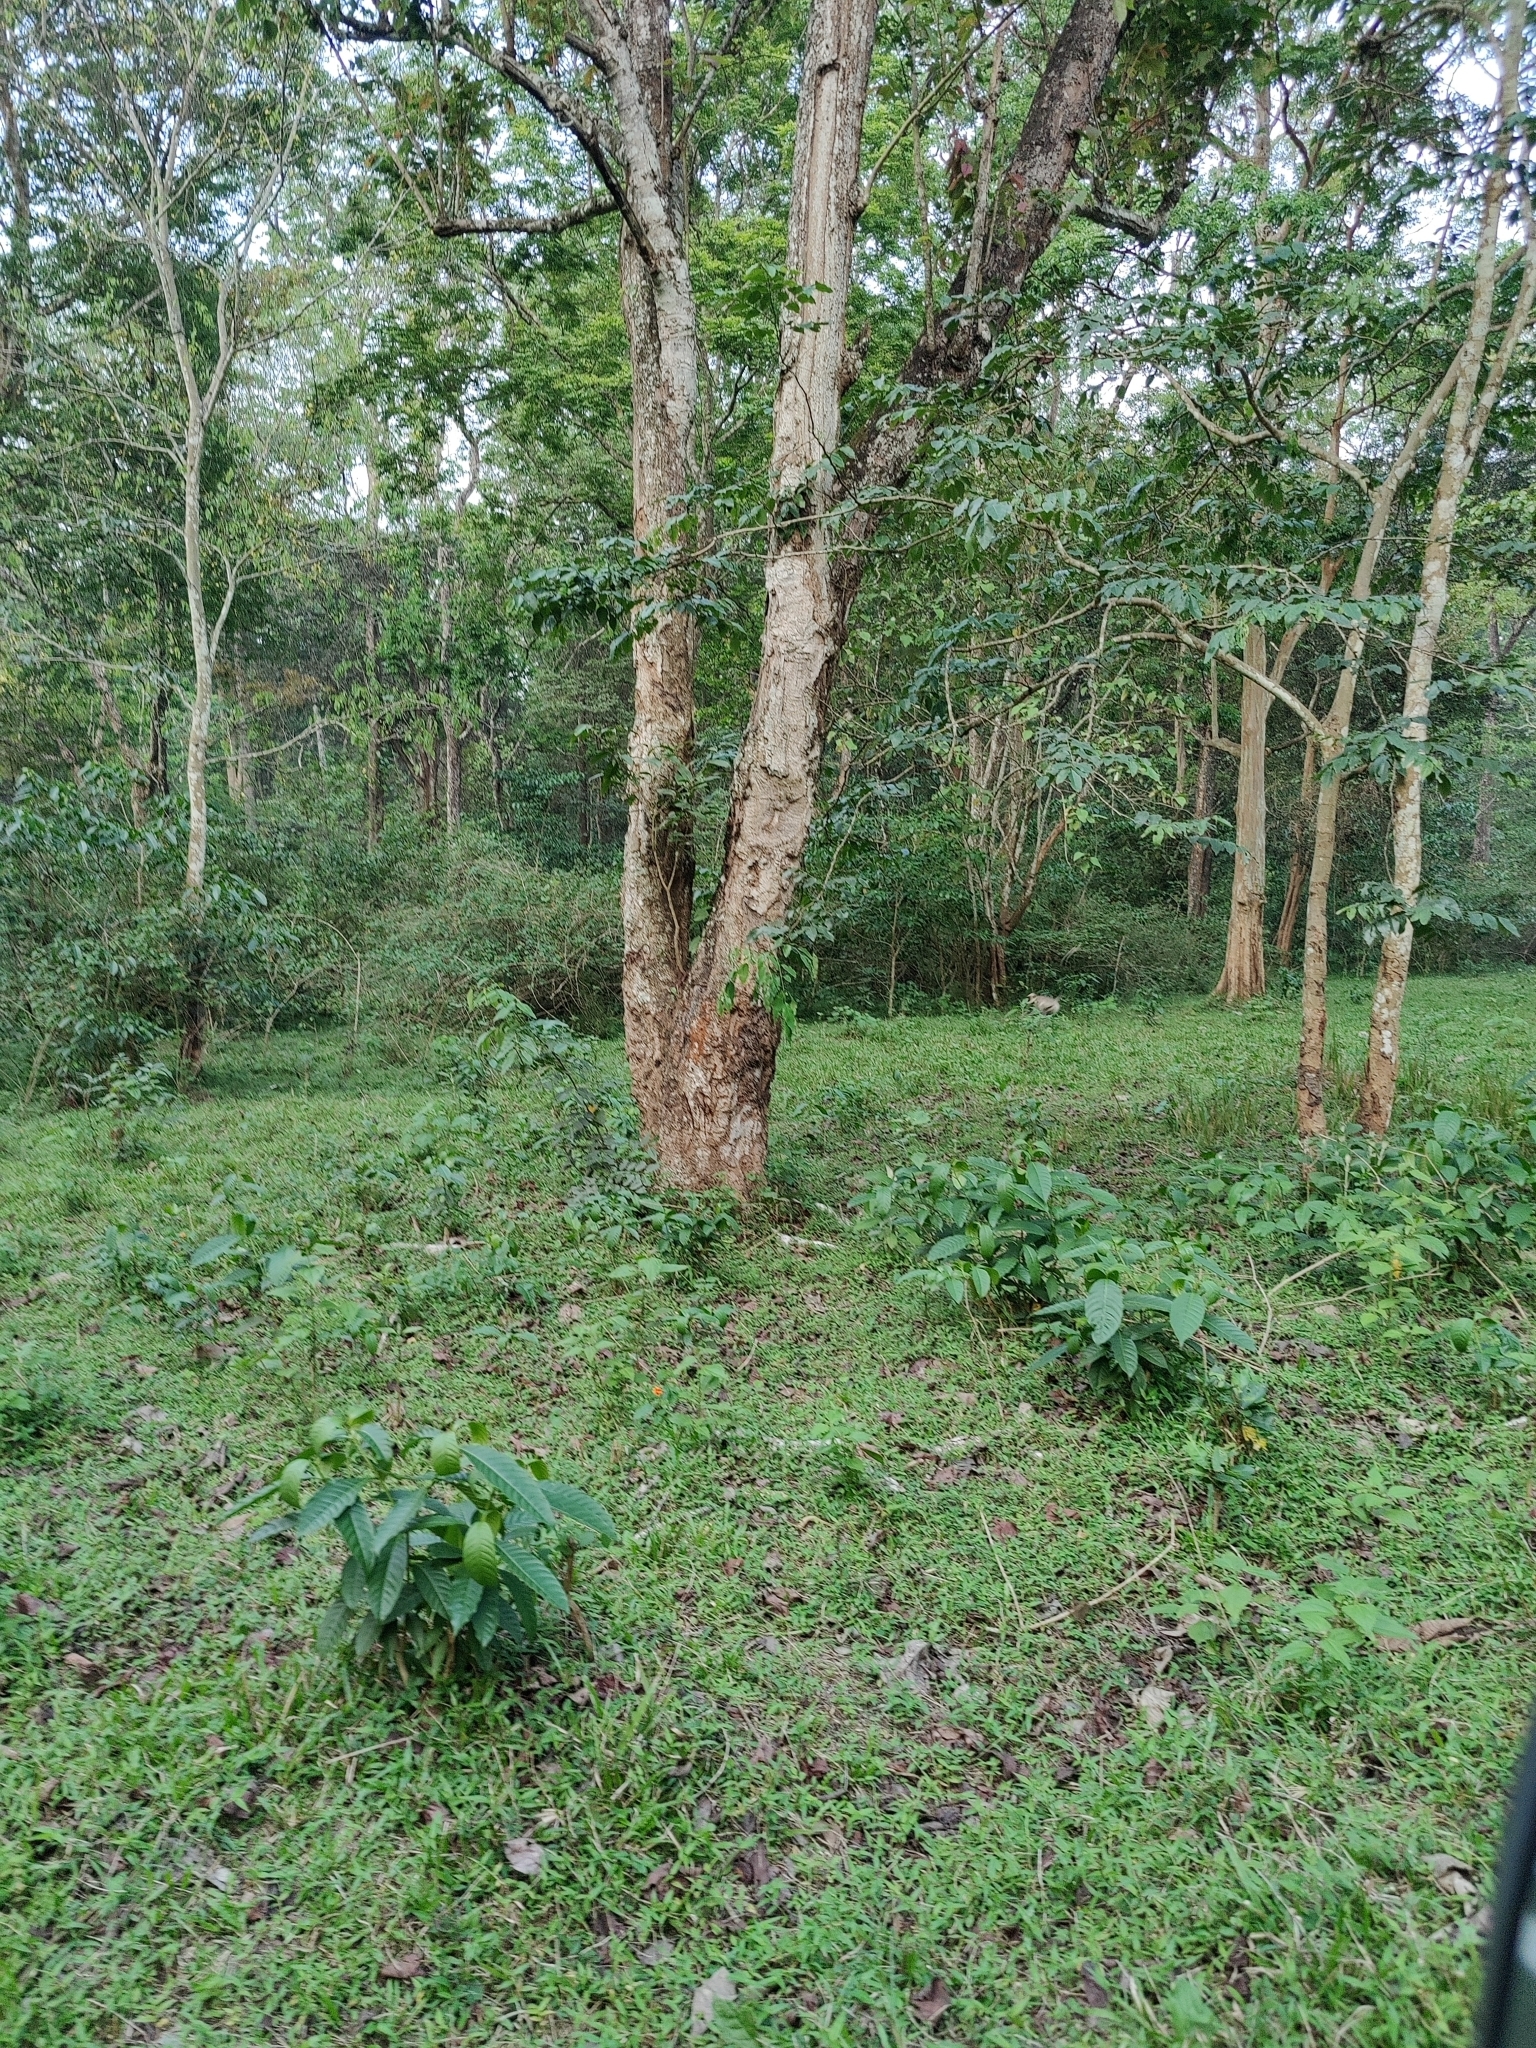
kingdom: Animalia
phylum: Chordata
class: Mammalia
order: Primates
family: Cercopithecidae
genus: Semnopithecus
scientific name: Semnopithecus hypoleucos
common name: Black-footed gray langur
